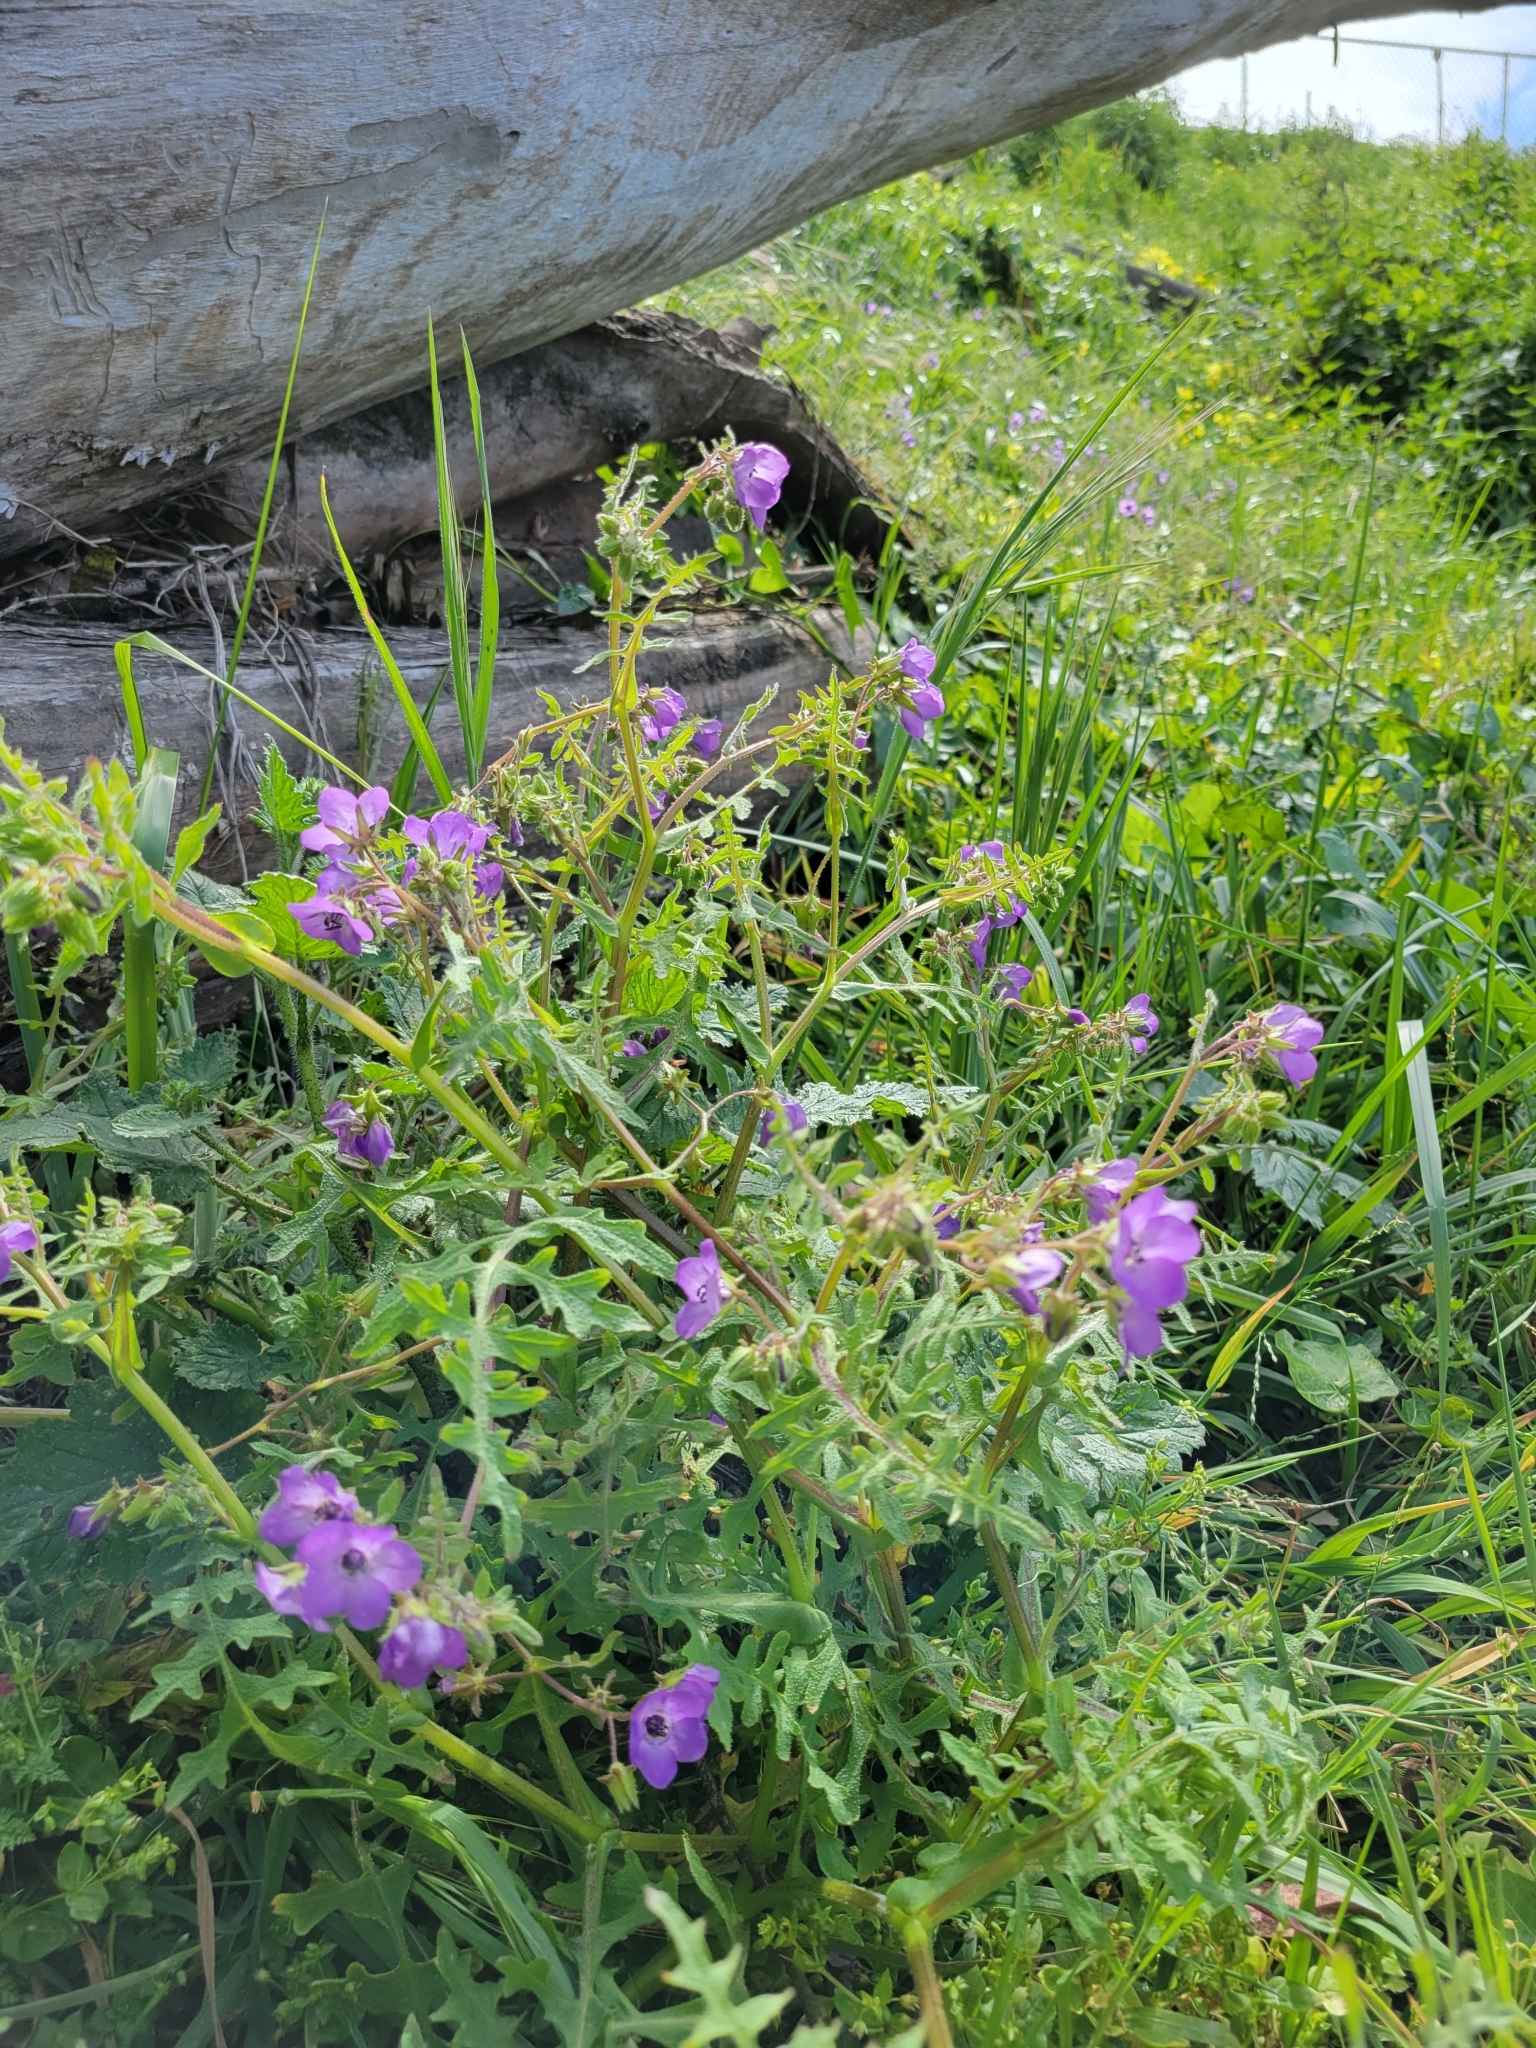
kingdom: Plantae
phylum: Tracheophyta
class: Magnoliopsida
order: Boraginales
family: Hydrophyllaceae
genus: Pholistoma
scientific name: Pholistoma auritum
